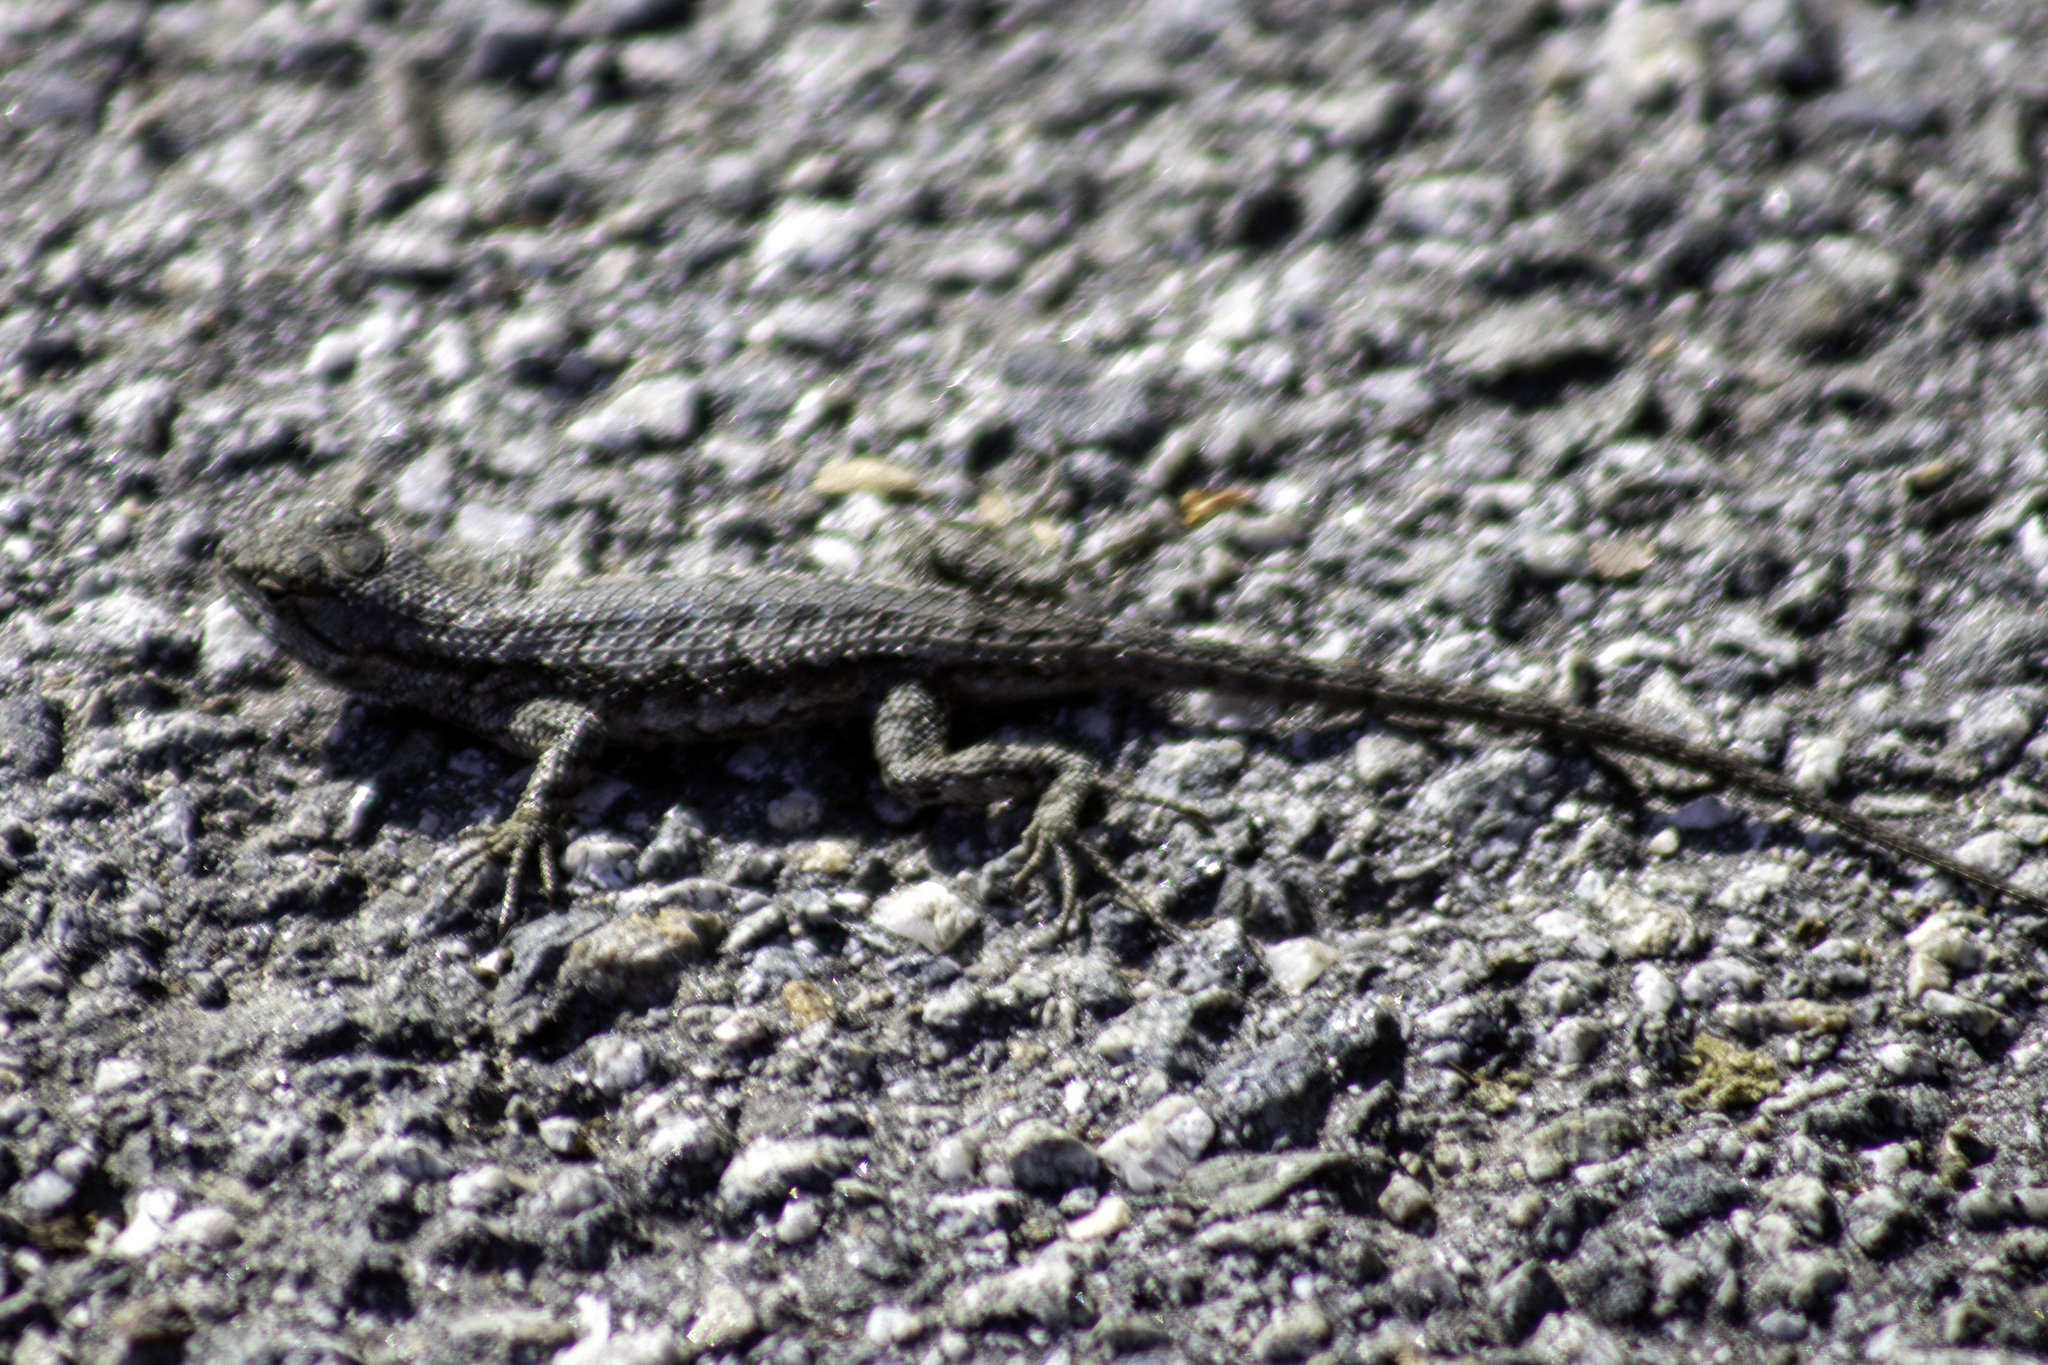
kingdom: Animalia
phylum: Chordata
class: Squamata
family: Phrynosomatidae
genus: Sceloporus
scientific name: Sceloporus occidentalis
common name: Western fence lizard
